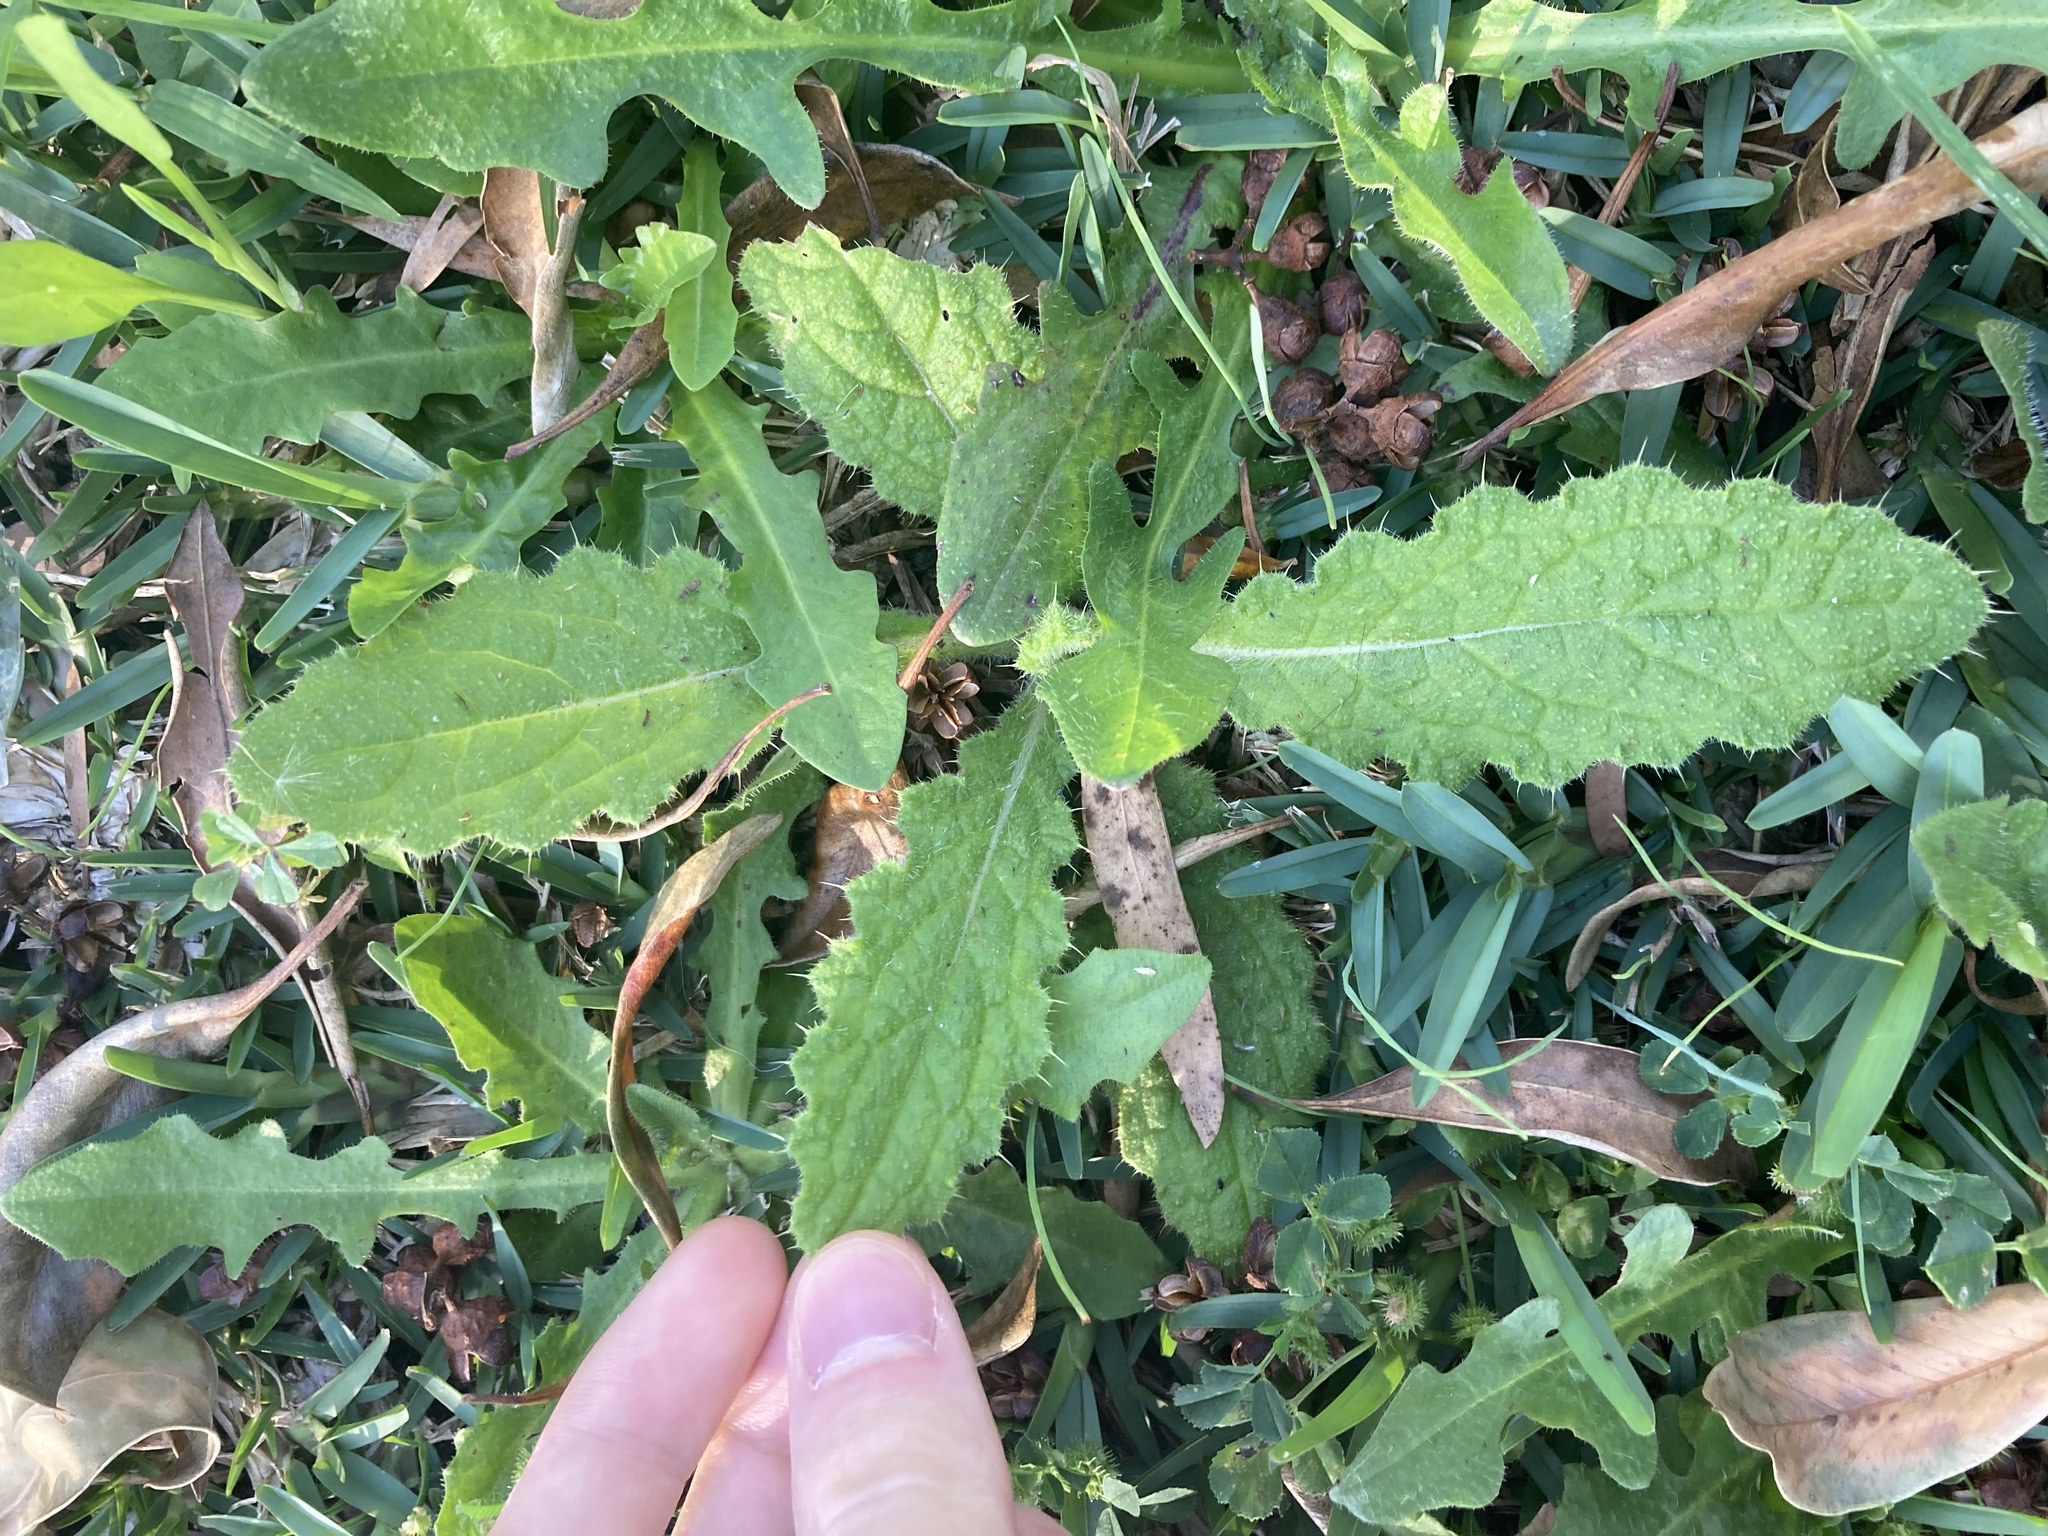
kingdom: Plantae
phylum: Tracheophyta
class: Magnoliopsida
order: Asterales
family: Asteraceae
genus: Cirsium
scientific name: Cirsium vulgare
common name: Bull thistle
